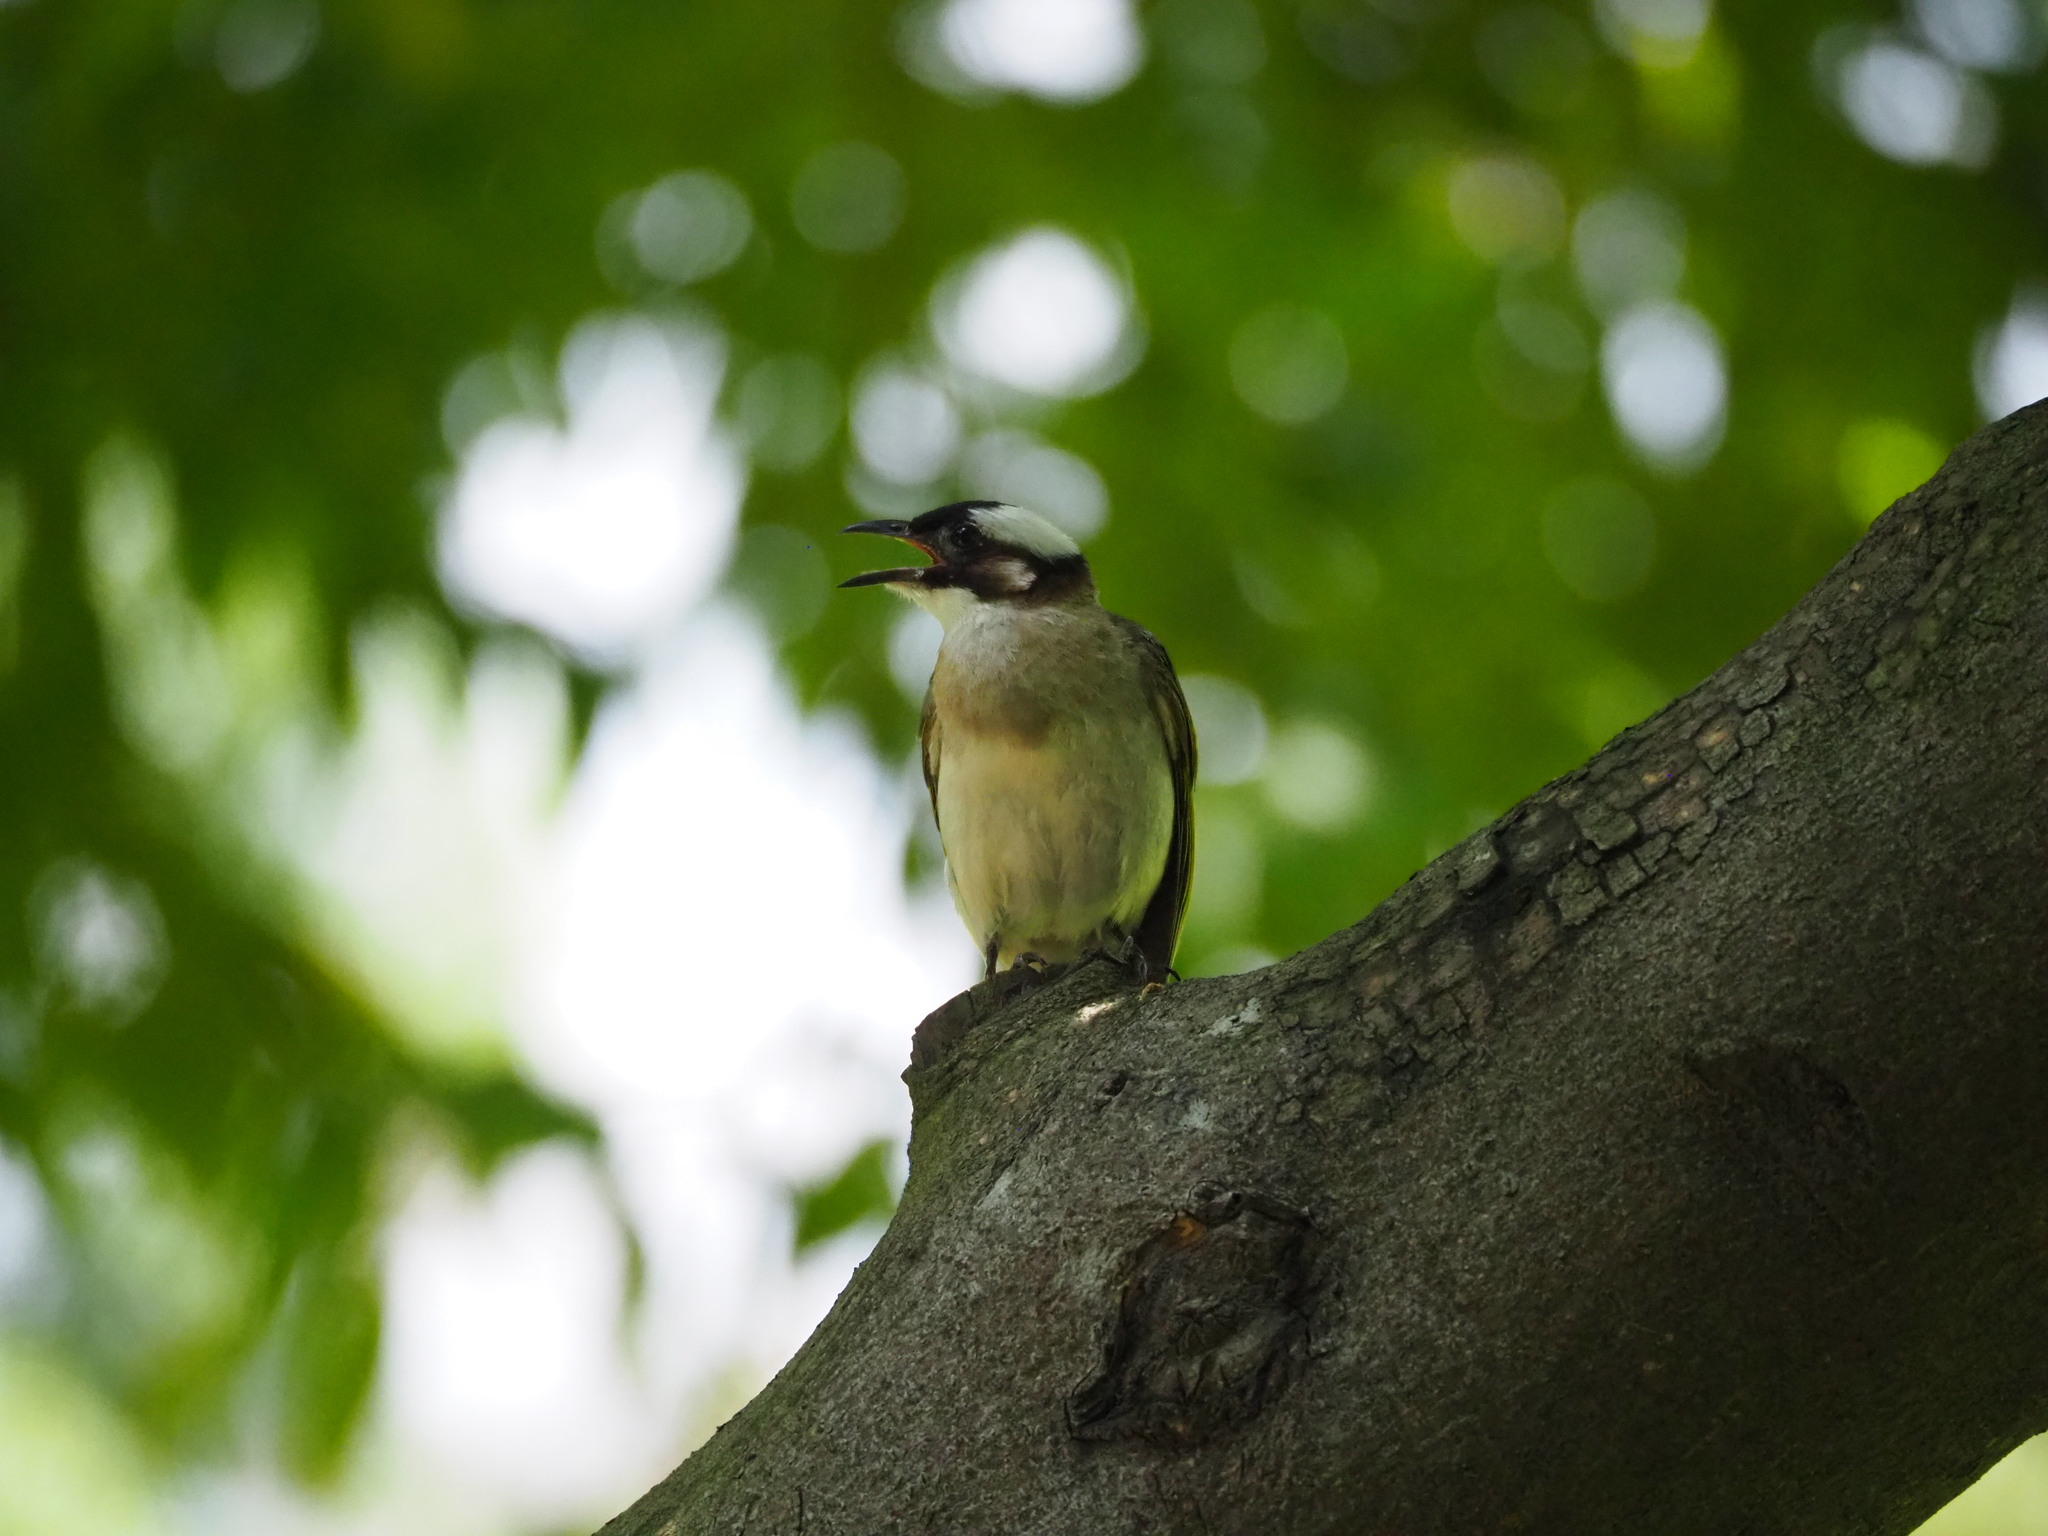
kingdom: Animalia
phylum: Chordata
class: Aves
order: Passeriformes
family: Pycnonotidae
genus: Pycnonotus
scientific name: Pycnonotus sinensis
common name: Light-vented bulbul
